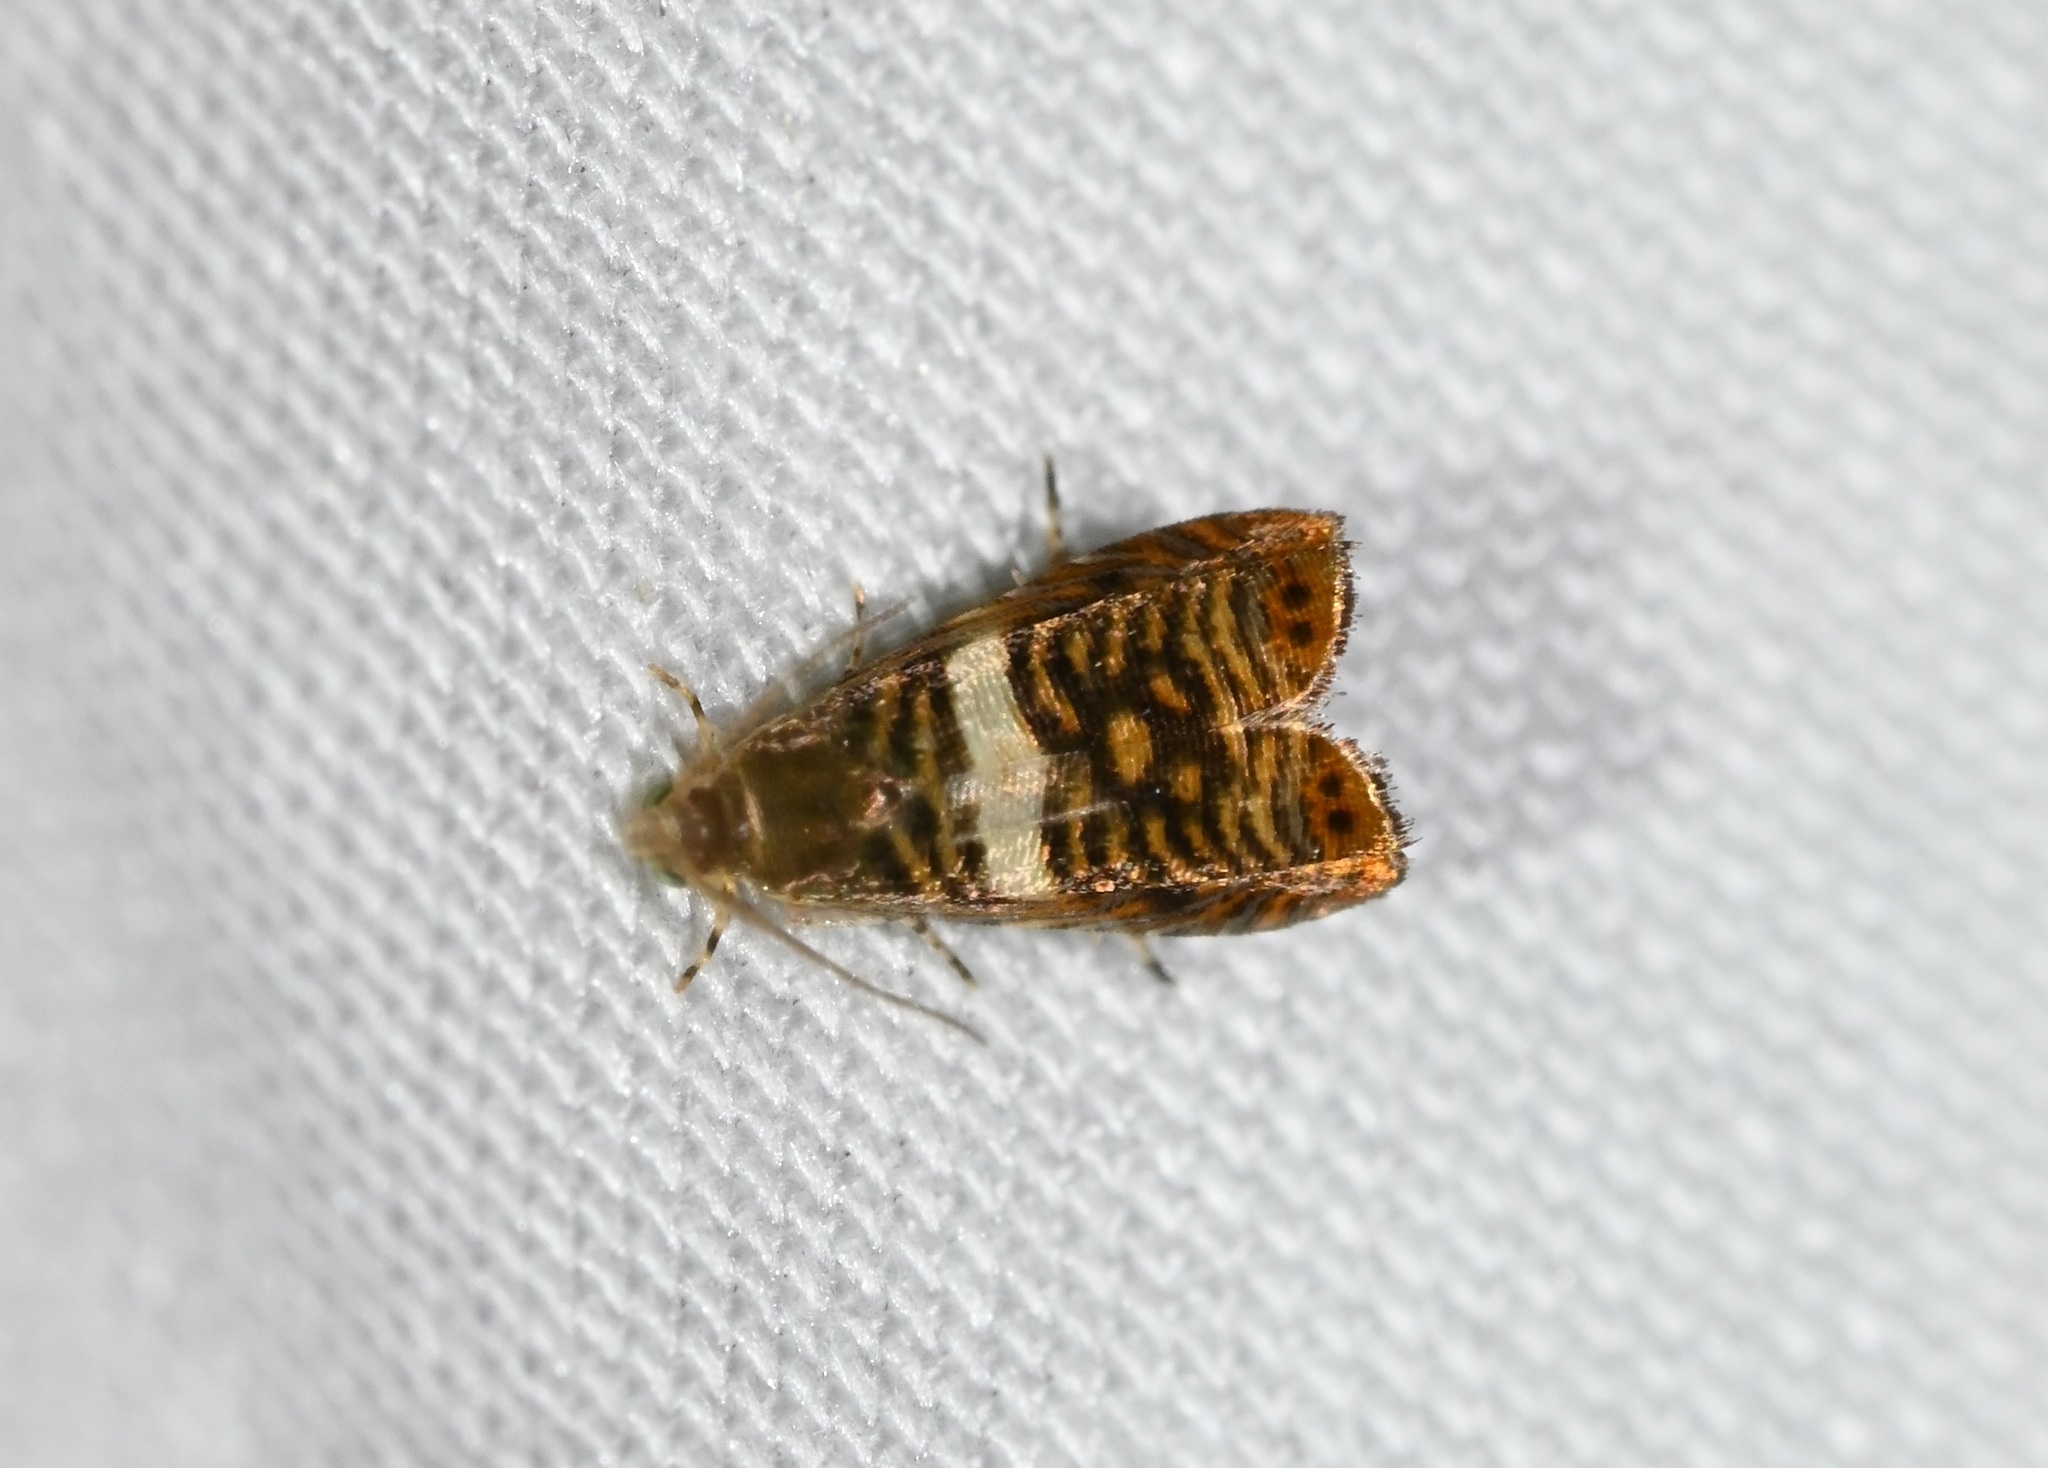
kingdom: Animalia
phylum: Arthropoda
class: Insecta
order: Lepidoptera
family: Tortricidae
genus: Hilarographa
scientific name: Hilarographa shehkonga
